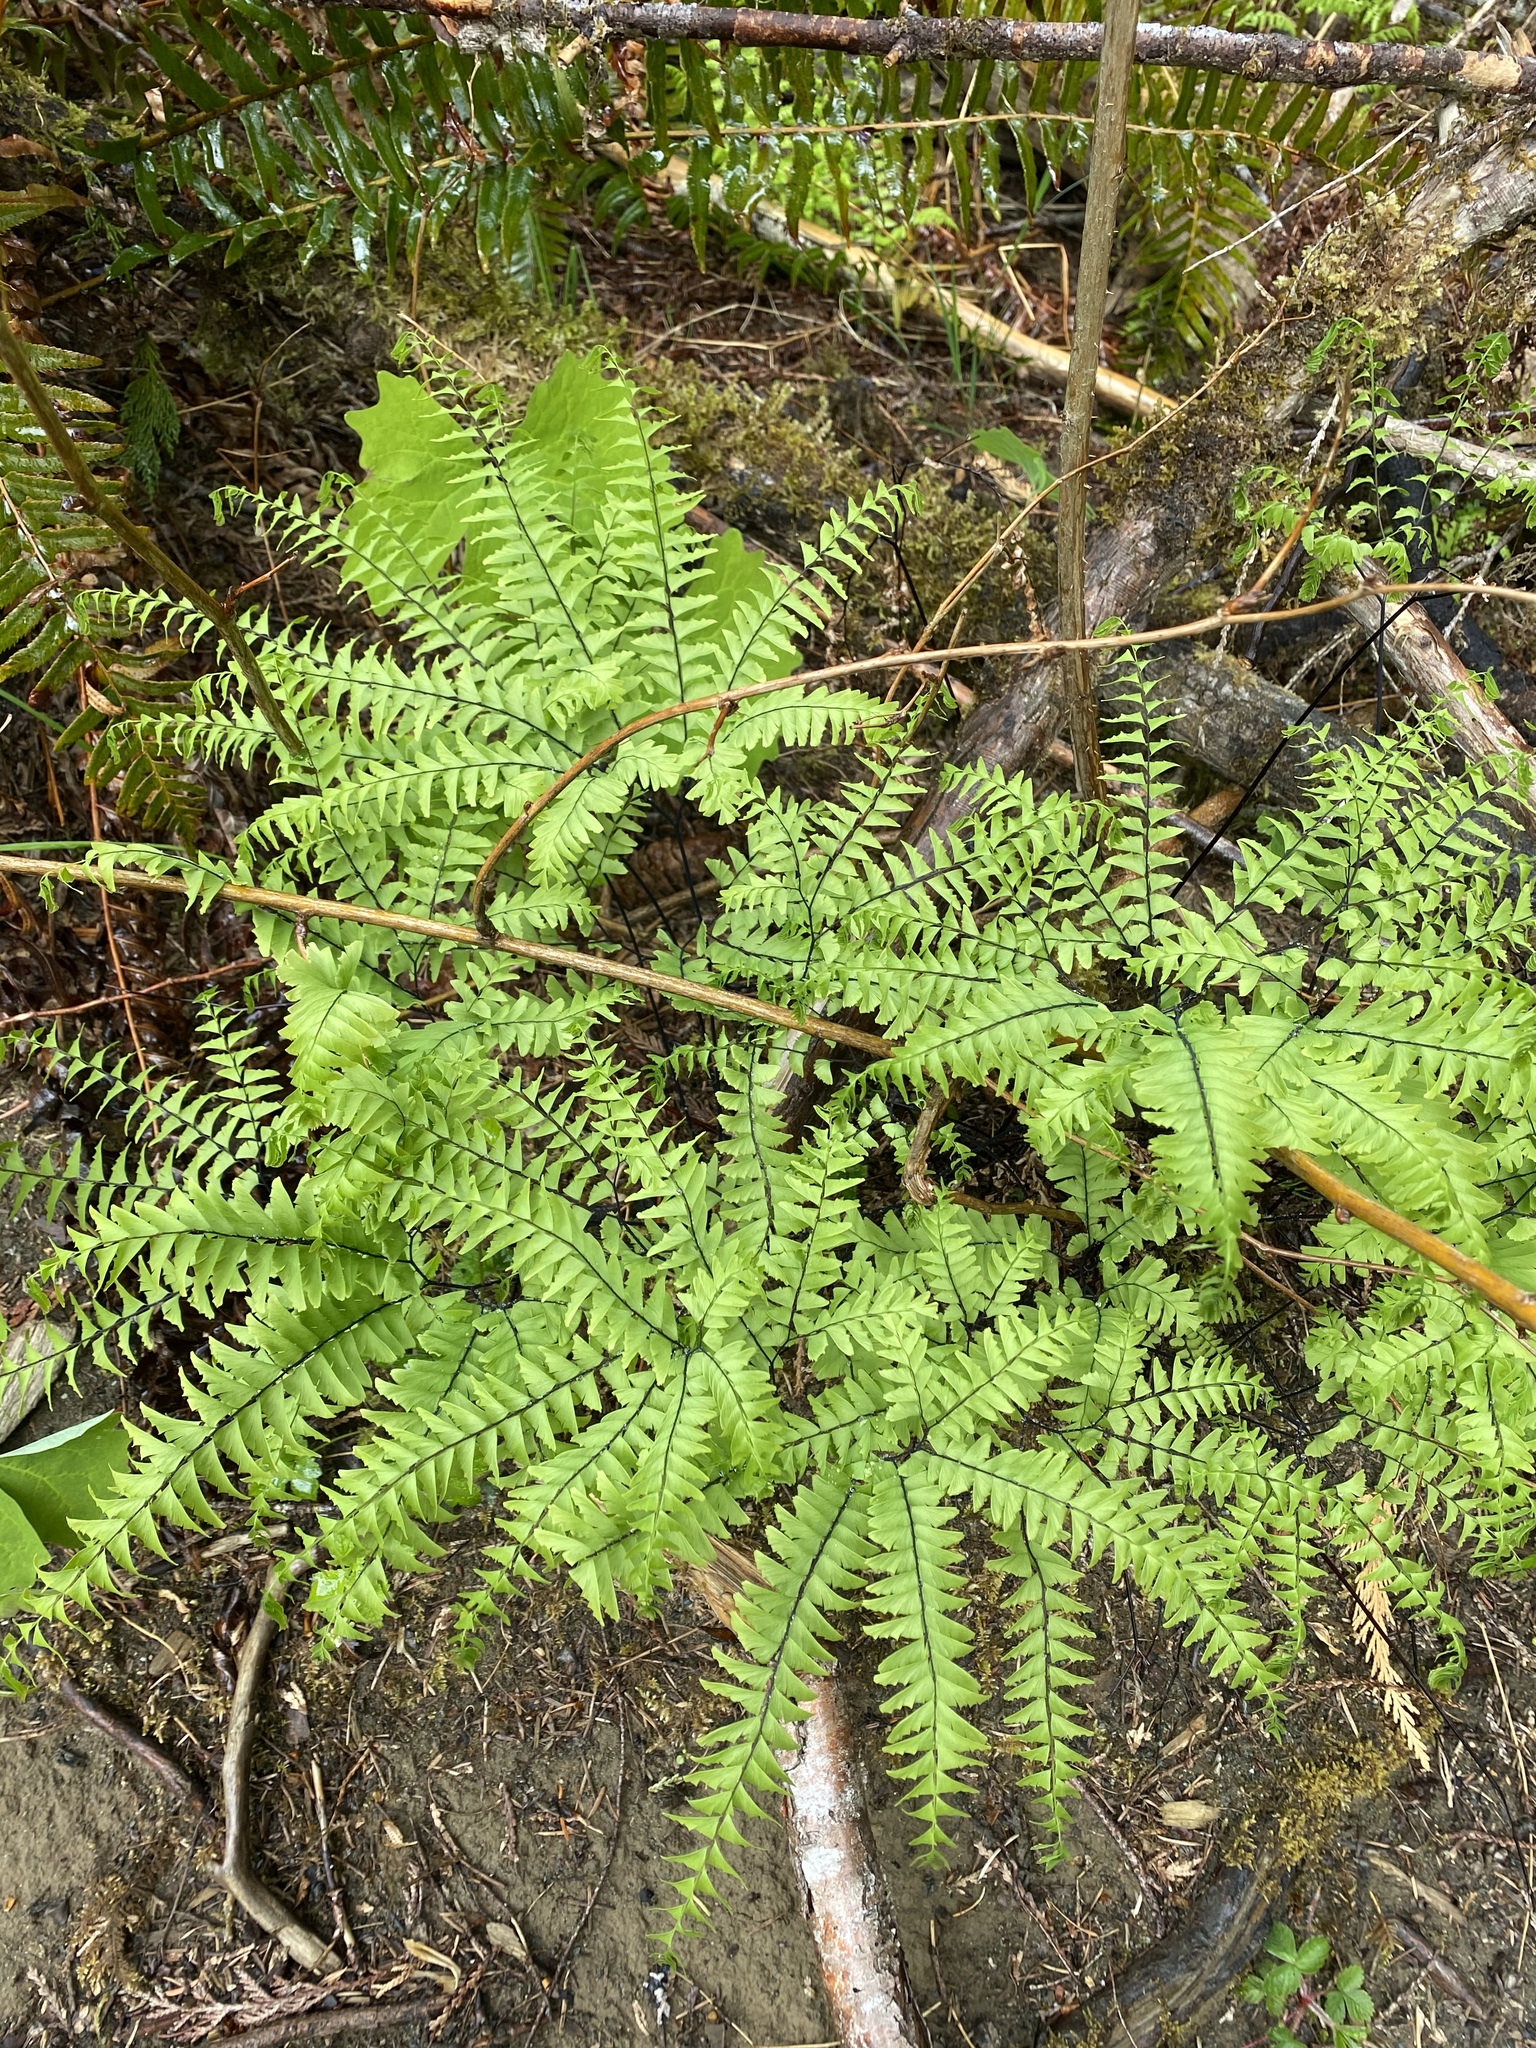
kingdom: Plantae
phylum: Tracheophyta
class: Polypodiopsida
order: Polypodiales
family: Pteridaceae
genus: Adiantum
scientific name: Adiantum aleuticum
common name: Aleutian maidenhair fern
